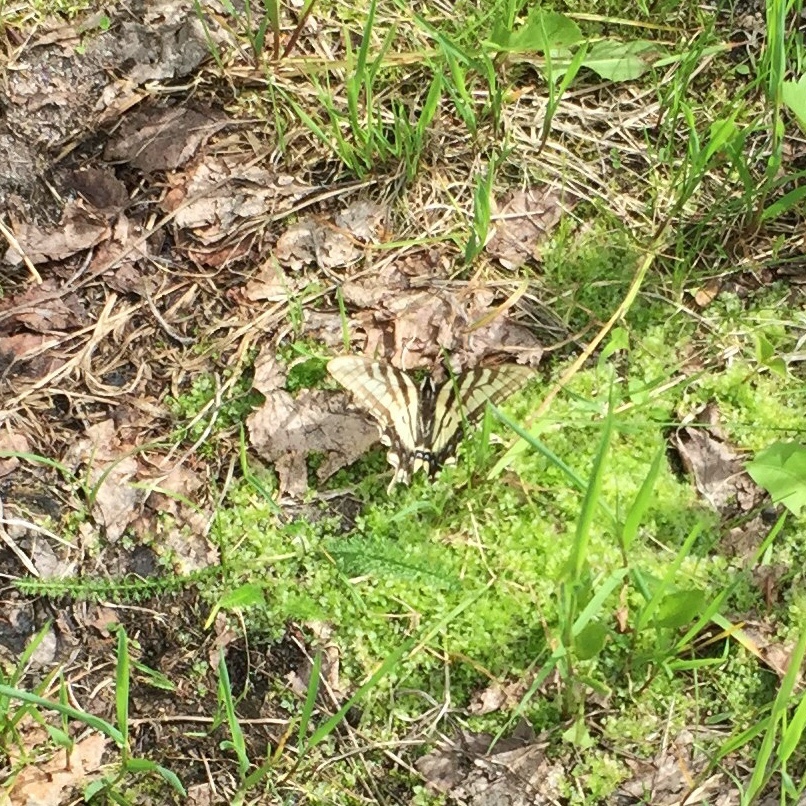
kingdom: Animalia
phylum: Arthropoda
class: Insecta
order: Lepidoptera
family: Papilionidae
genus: Papilio
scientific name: Papilio canadensis
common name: Canadian tiger swallowtail
